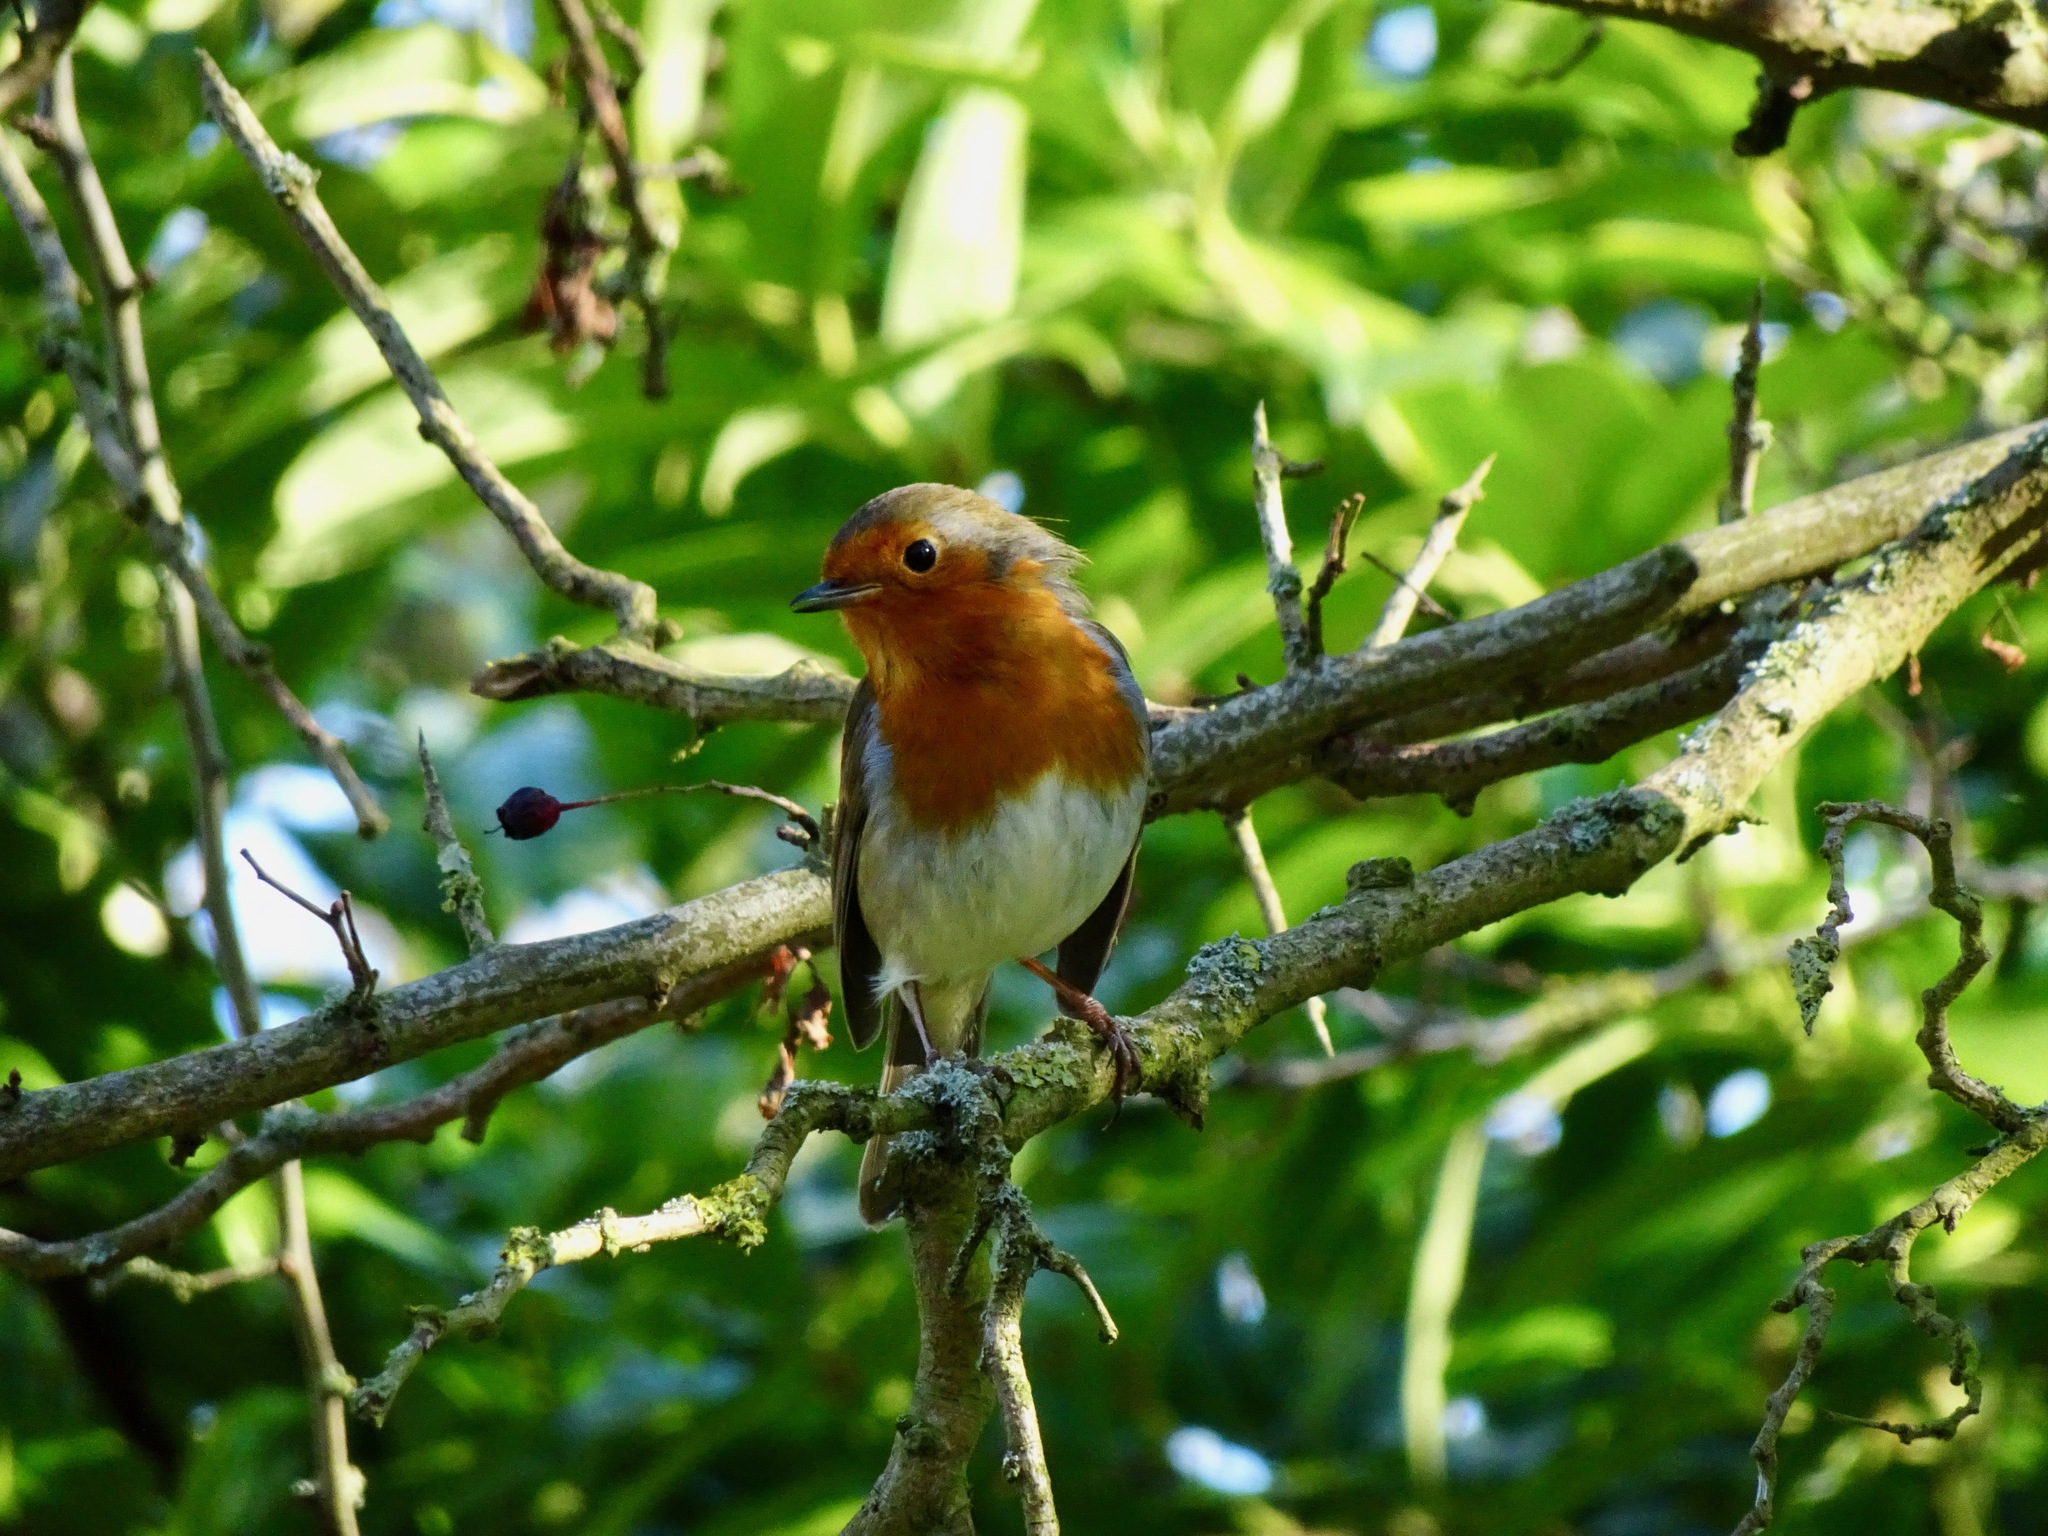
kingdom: Animalia
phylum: Chordata
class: Aves
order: Passeriformes
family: Muscicapidae
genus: Erithacus
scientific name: Erithacus rubecula
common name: European robin
